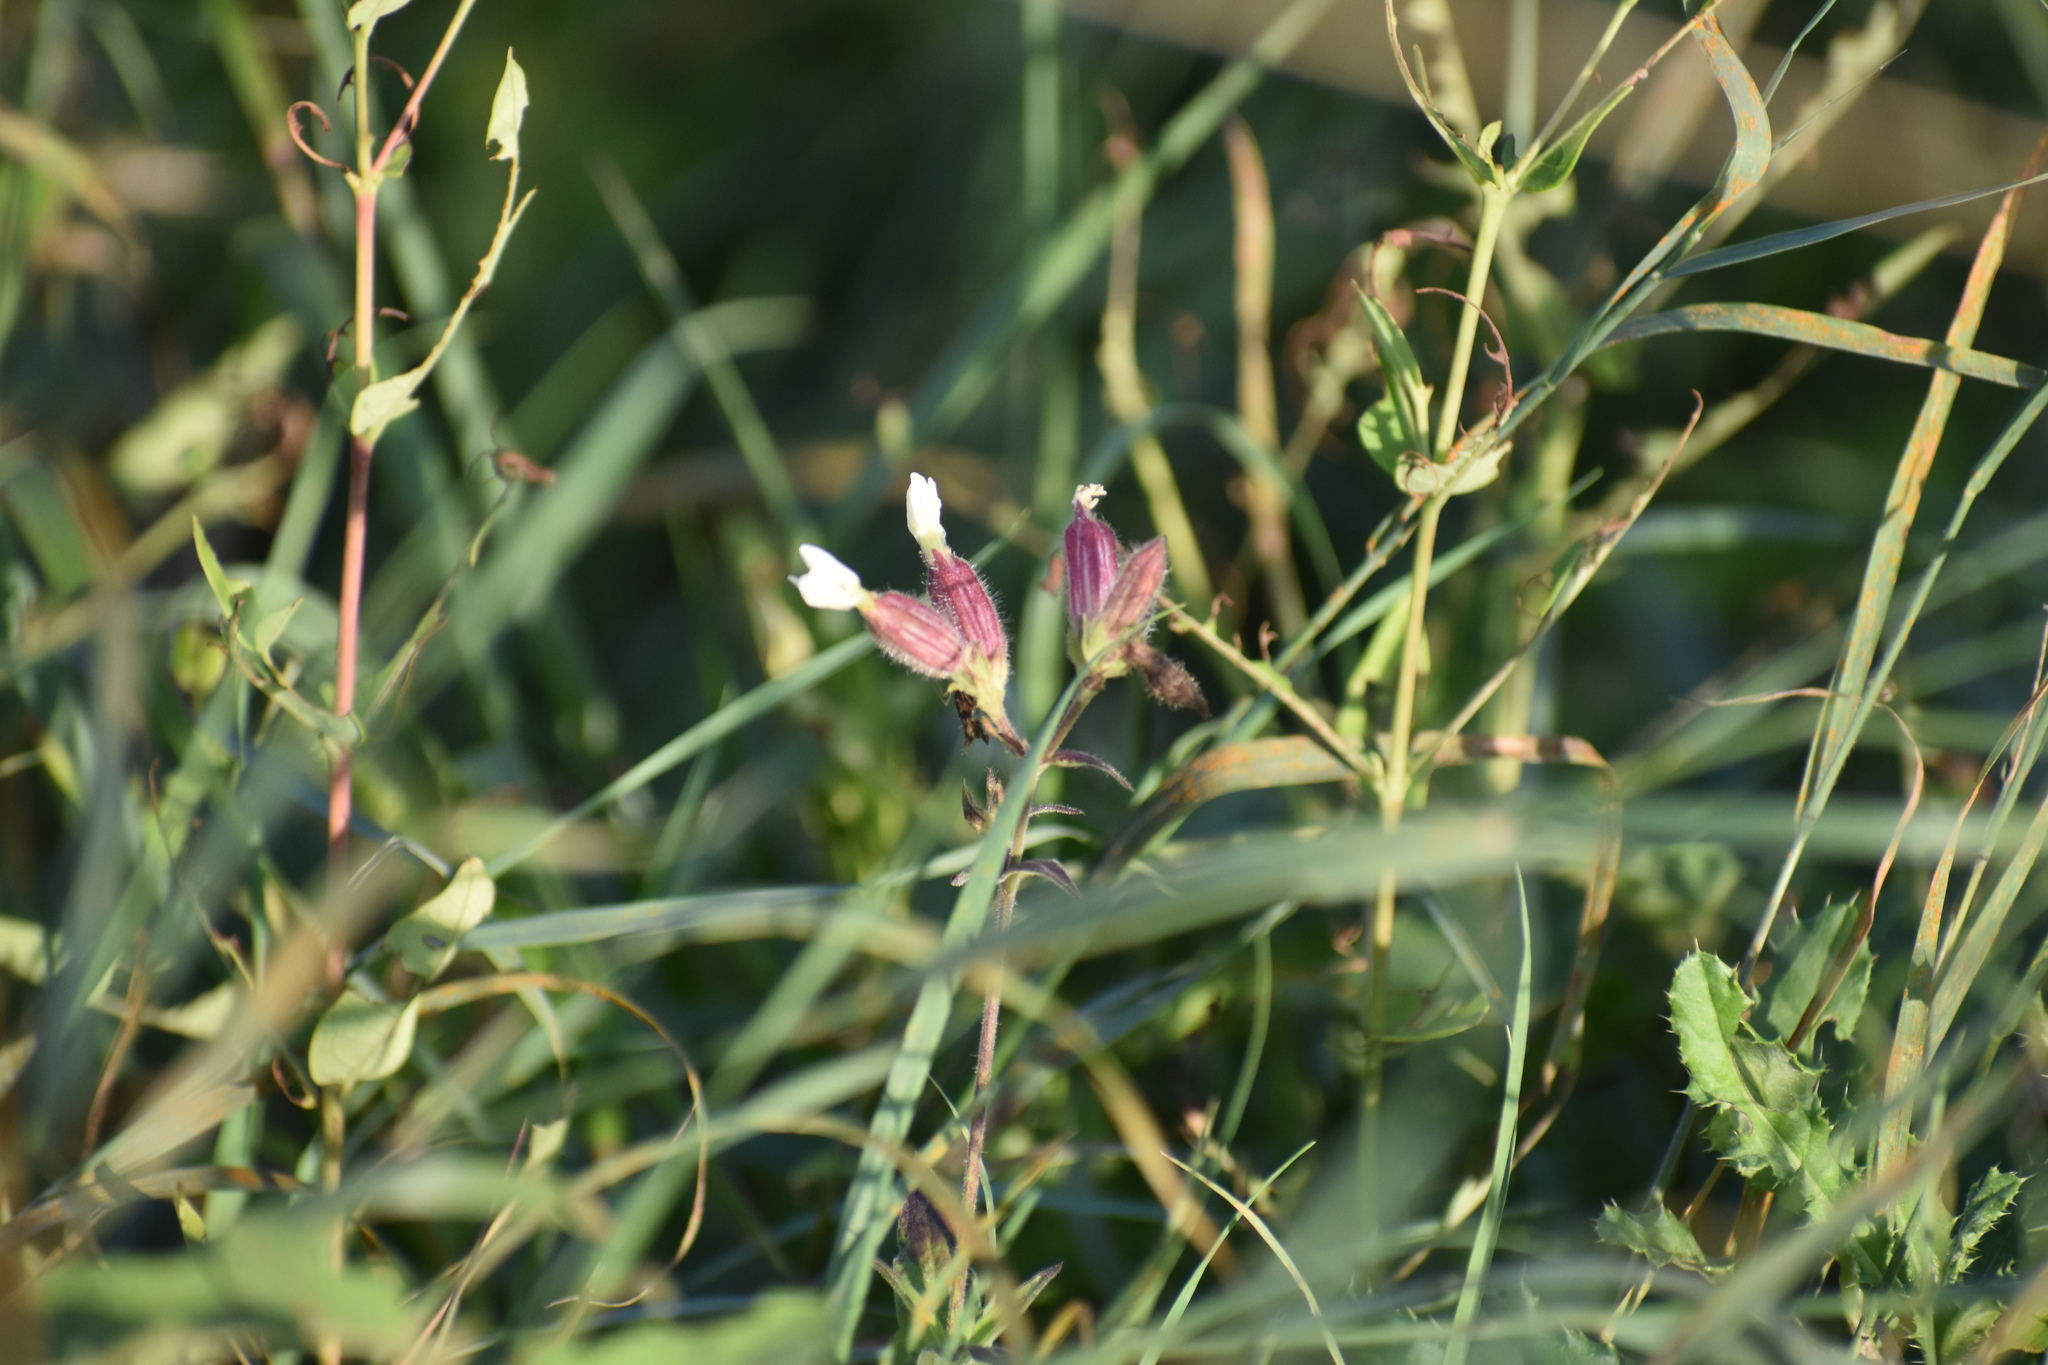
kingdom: Plantae
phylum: Tracheophyta
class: Magnoliopsida
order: Caryophyllales
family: Caryophyllaceae
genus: Silene
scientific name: Silene latifolia
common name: White campion
